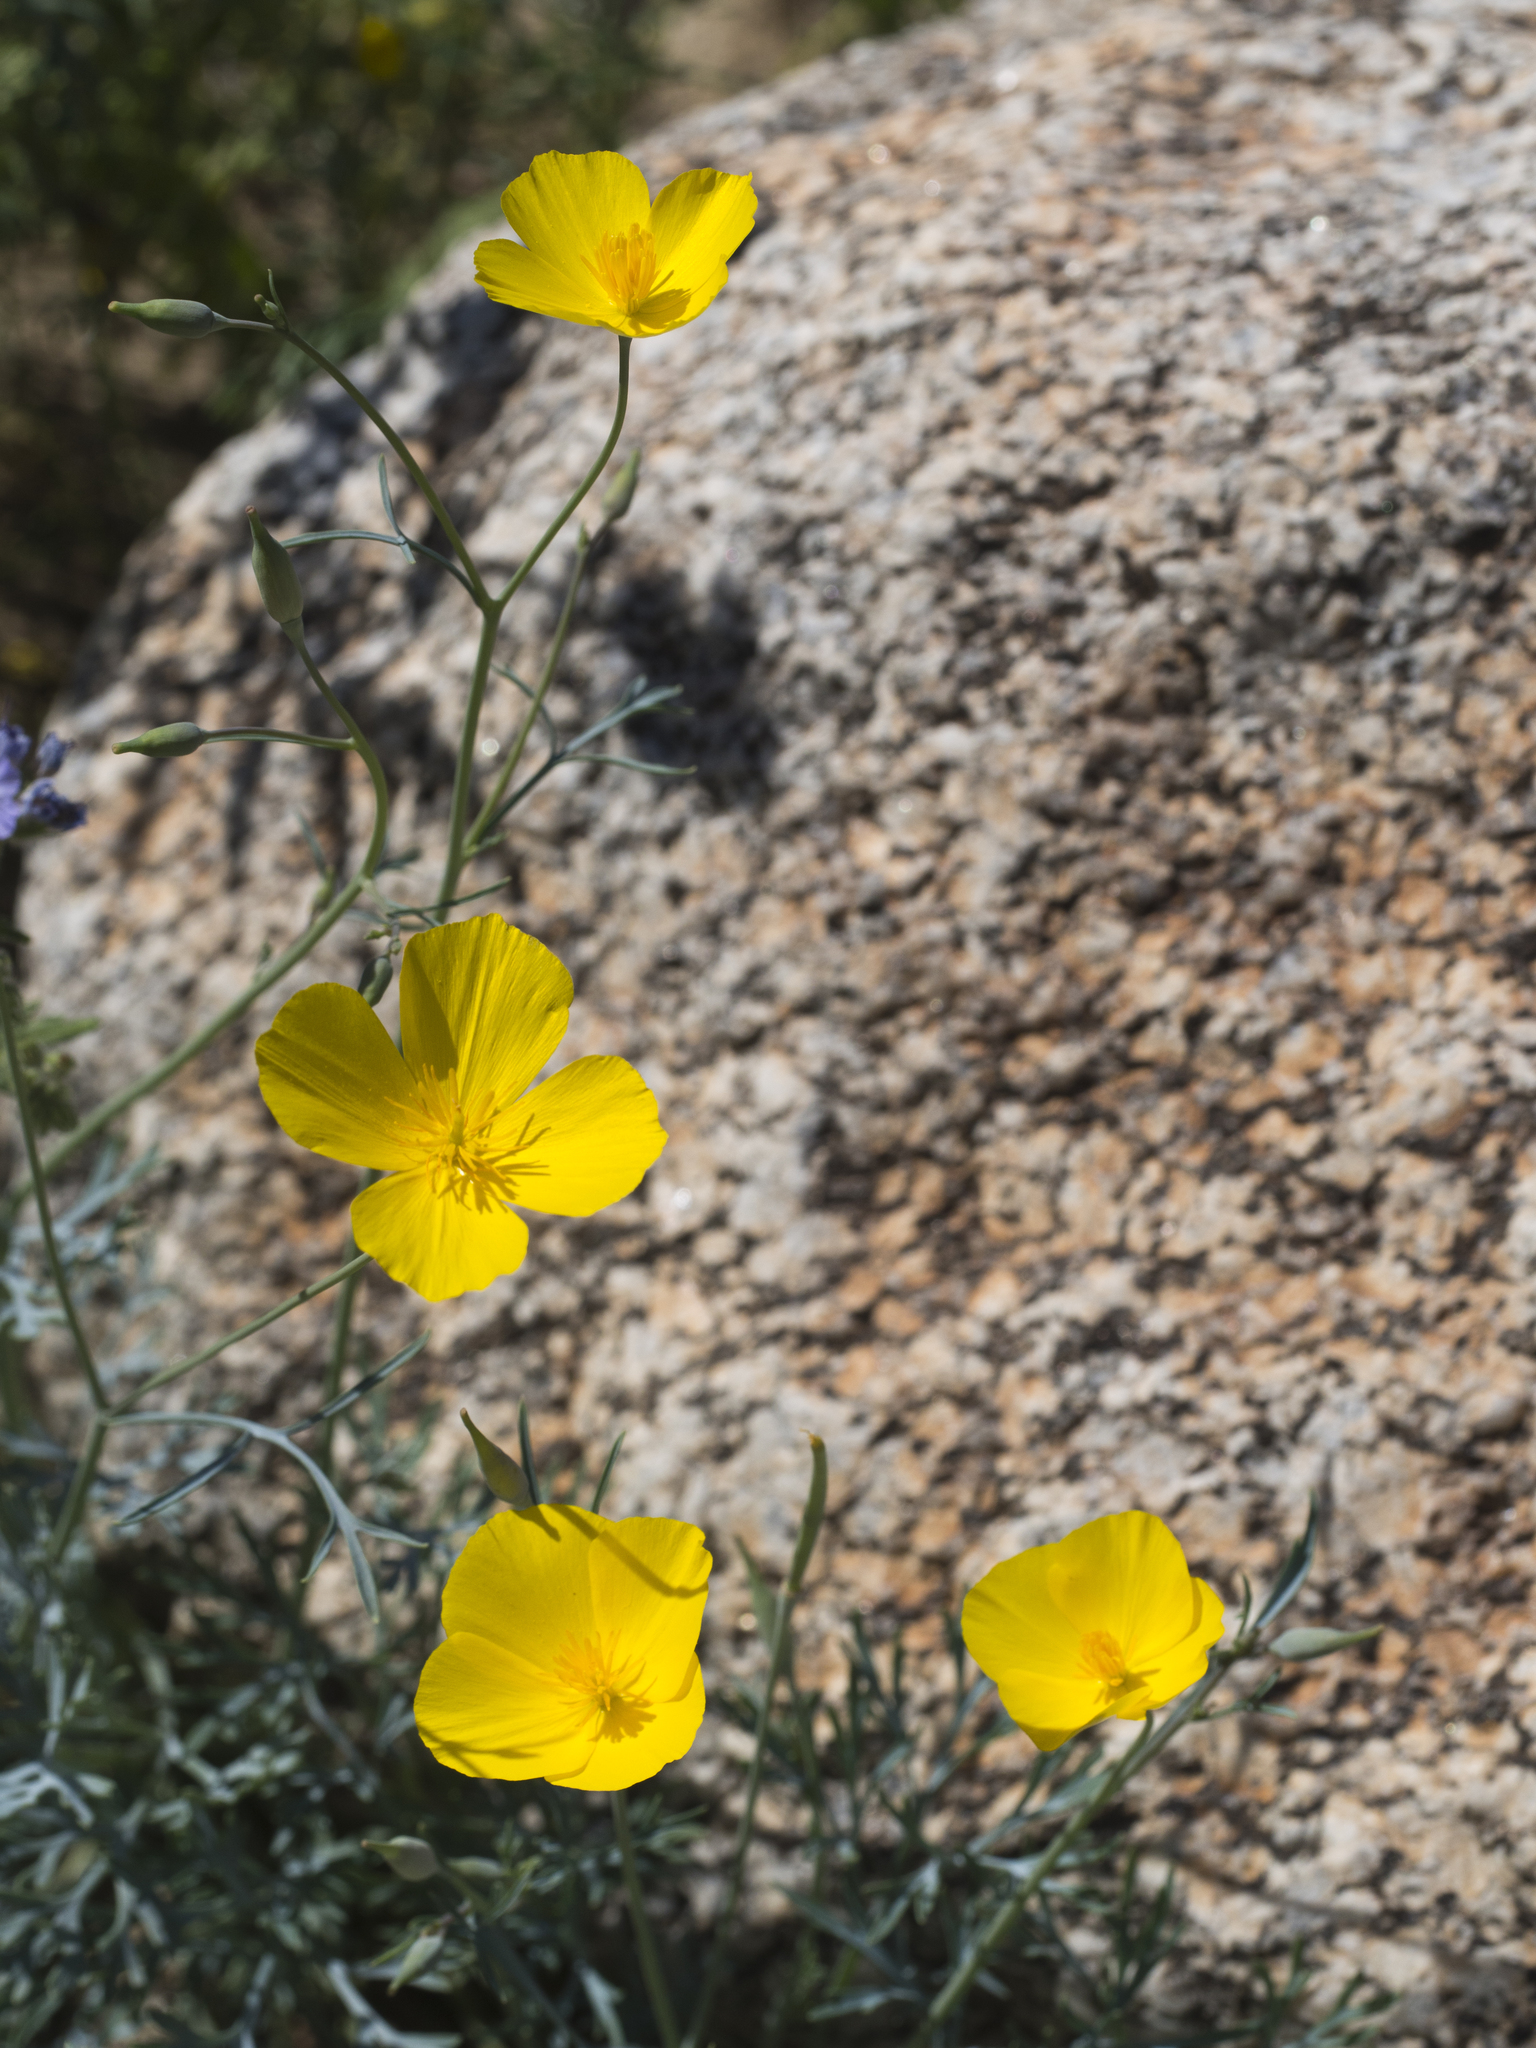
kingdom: Plantae
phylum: Tracheophyta
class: Magnoliopsida
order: Ranunculales
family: Papaveraceae
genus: Eschscholzia
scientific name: Eschscholzia parishii
